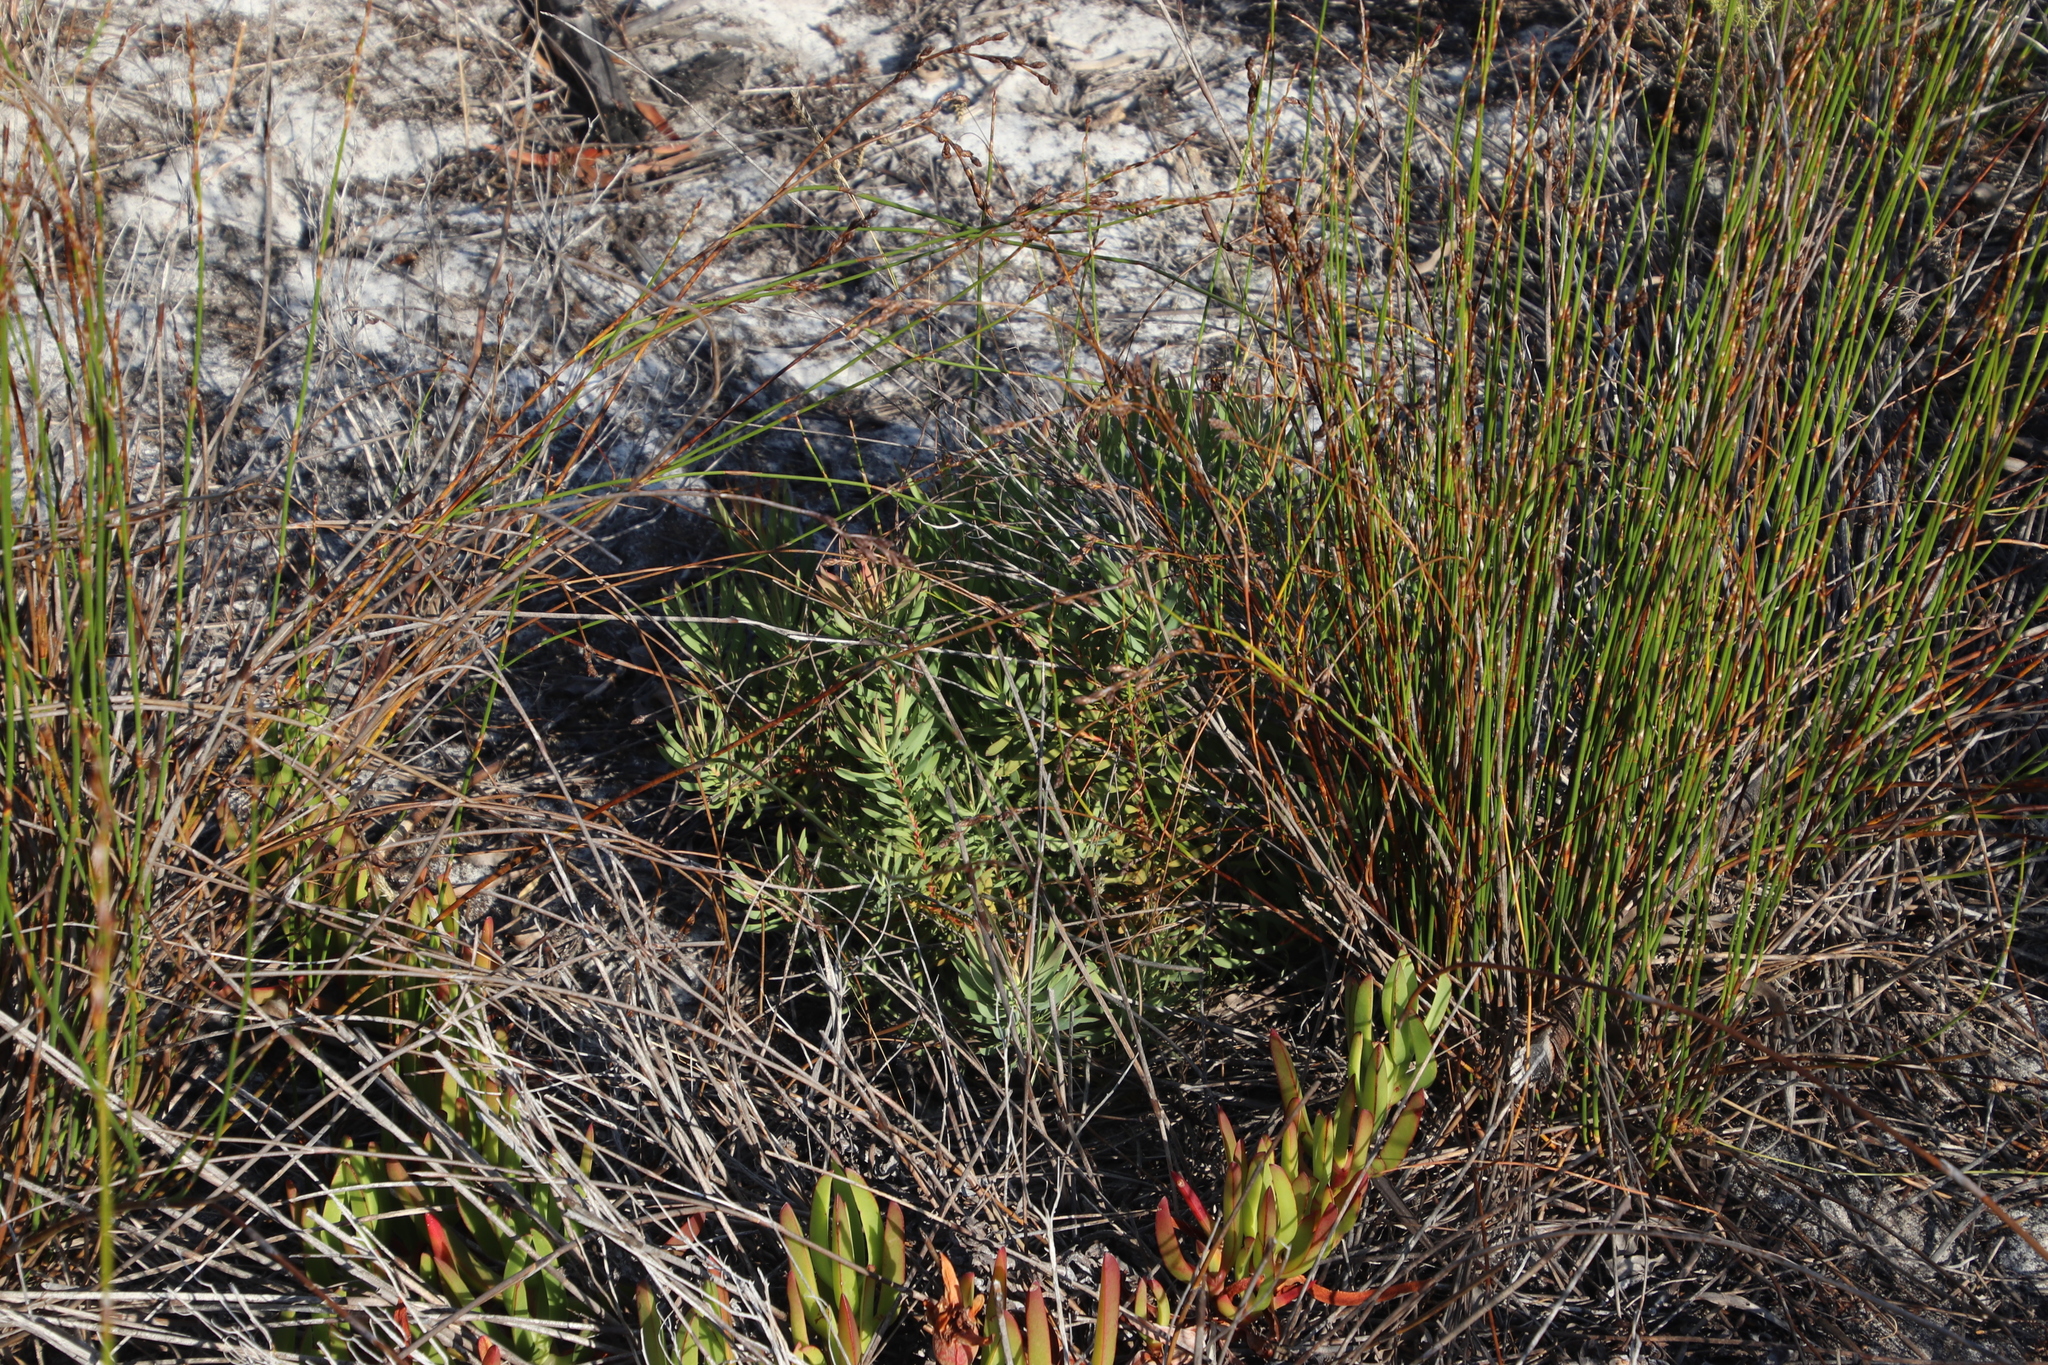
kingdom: Plantae
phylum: Tracheophyta
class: Magnoliopsida
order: Proteales
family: Proteaceae
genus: Leucadendron
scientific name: Leucadendron salignum
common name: Common sunshine conebush
